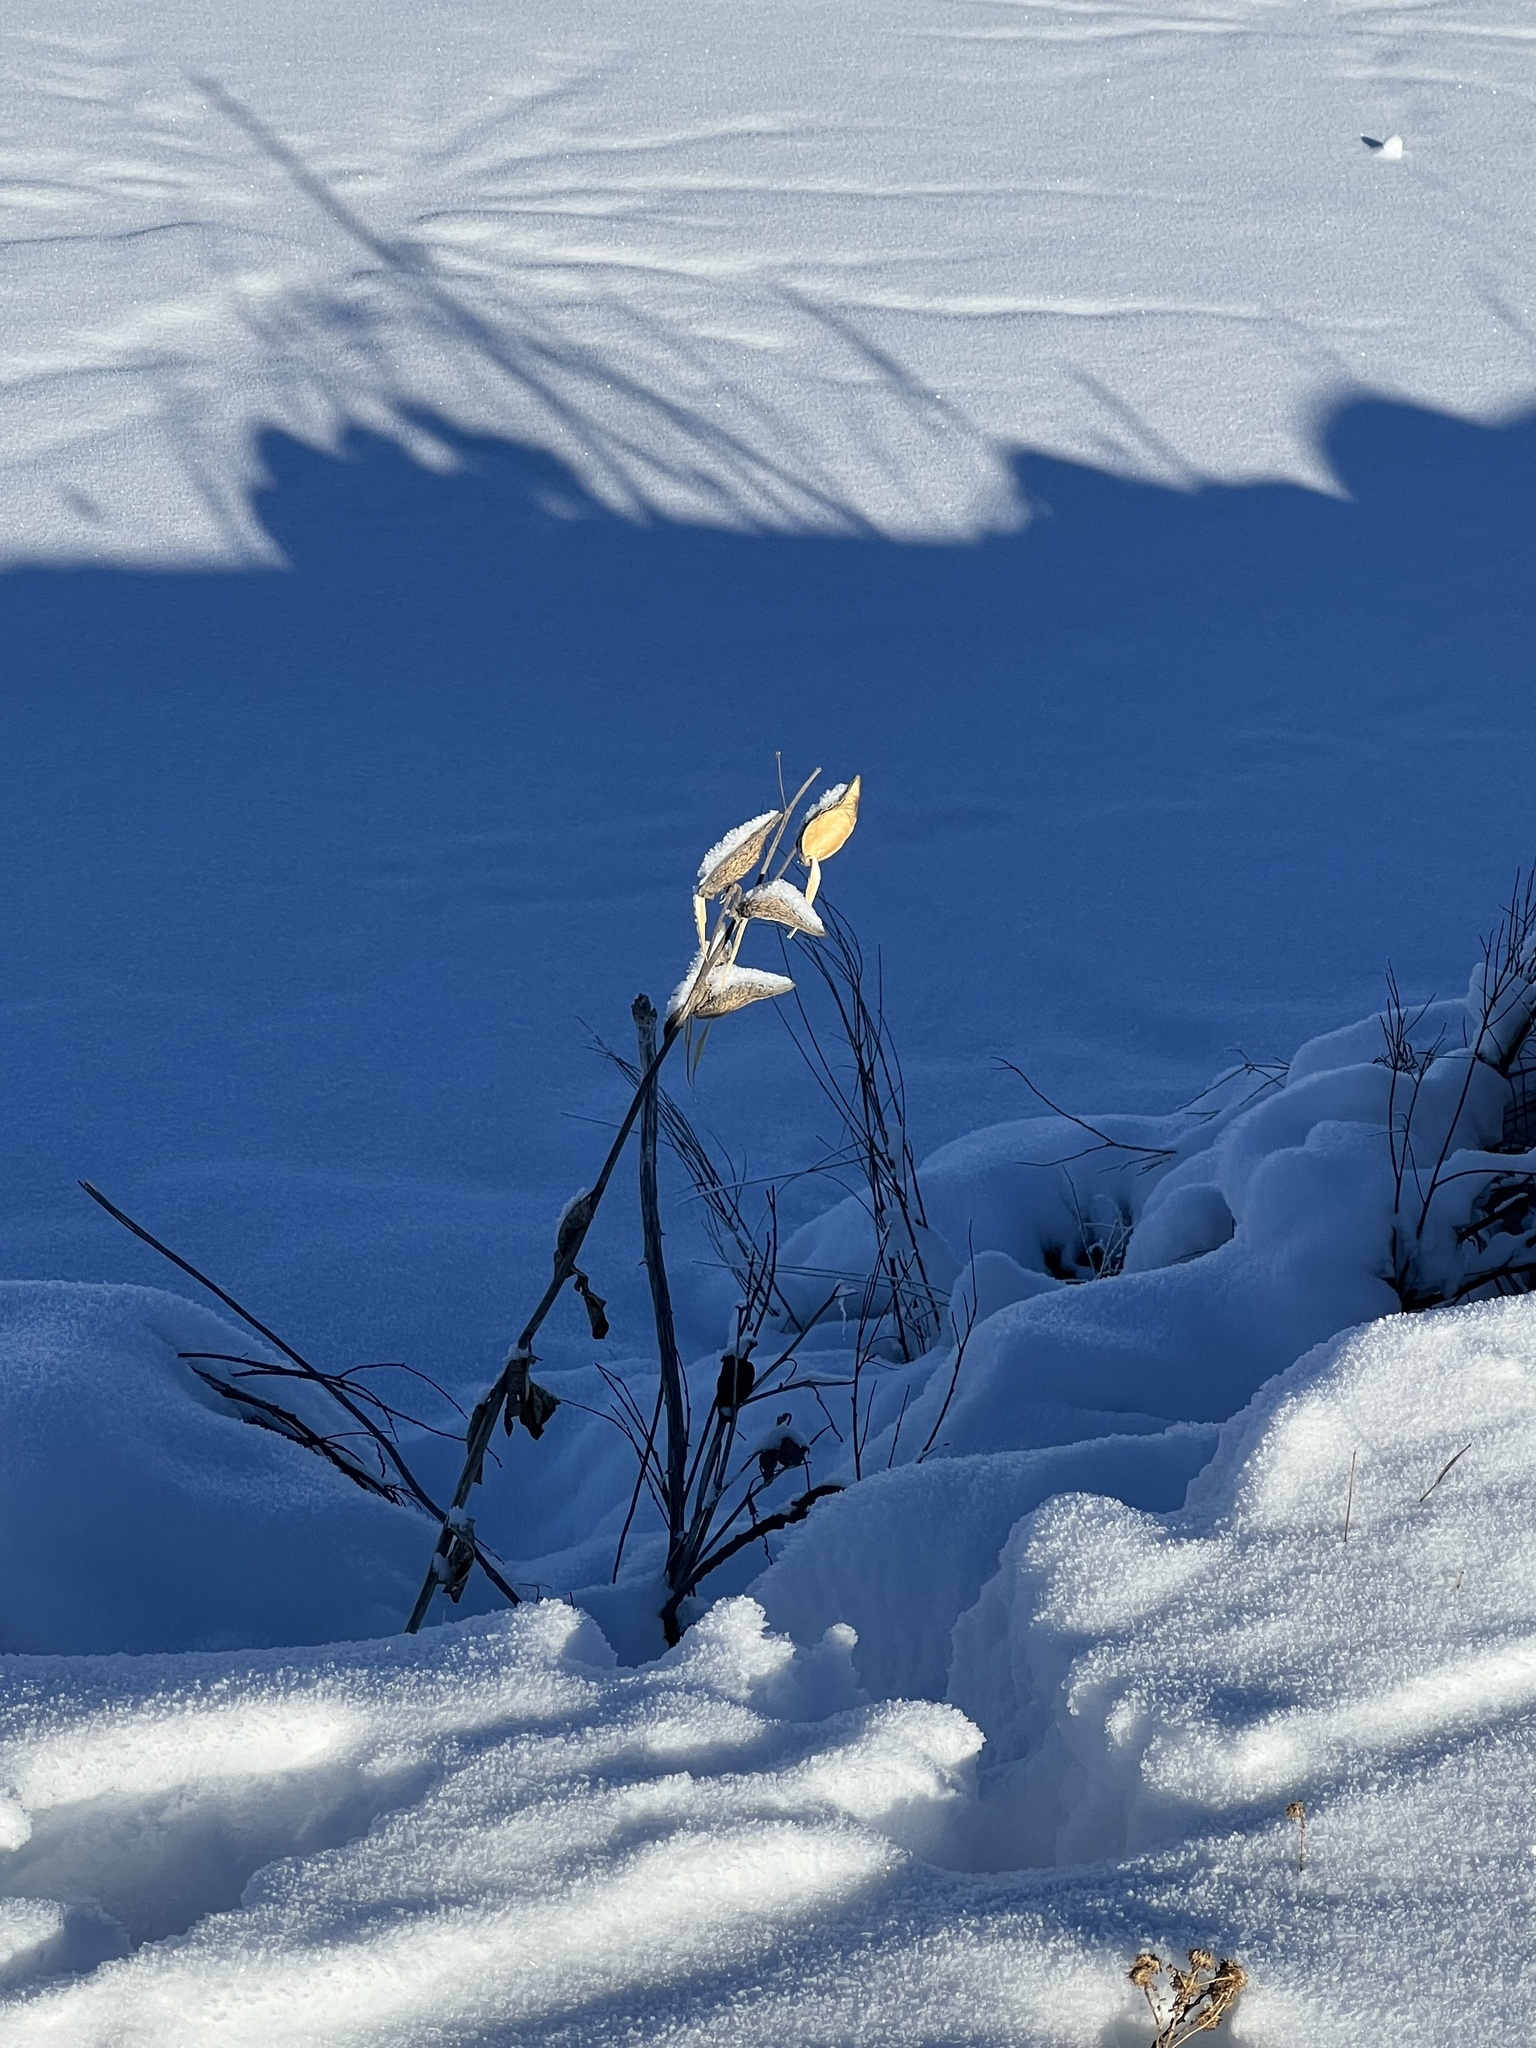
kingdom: Plantae
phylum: Tracheophyta
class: Magnoliopsida
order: Gentianales
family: Apocynaceae
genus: Asclepias
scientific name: Asclepias speciosa
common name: Showy milkweed
